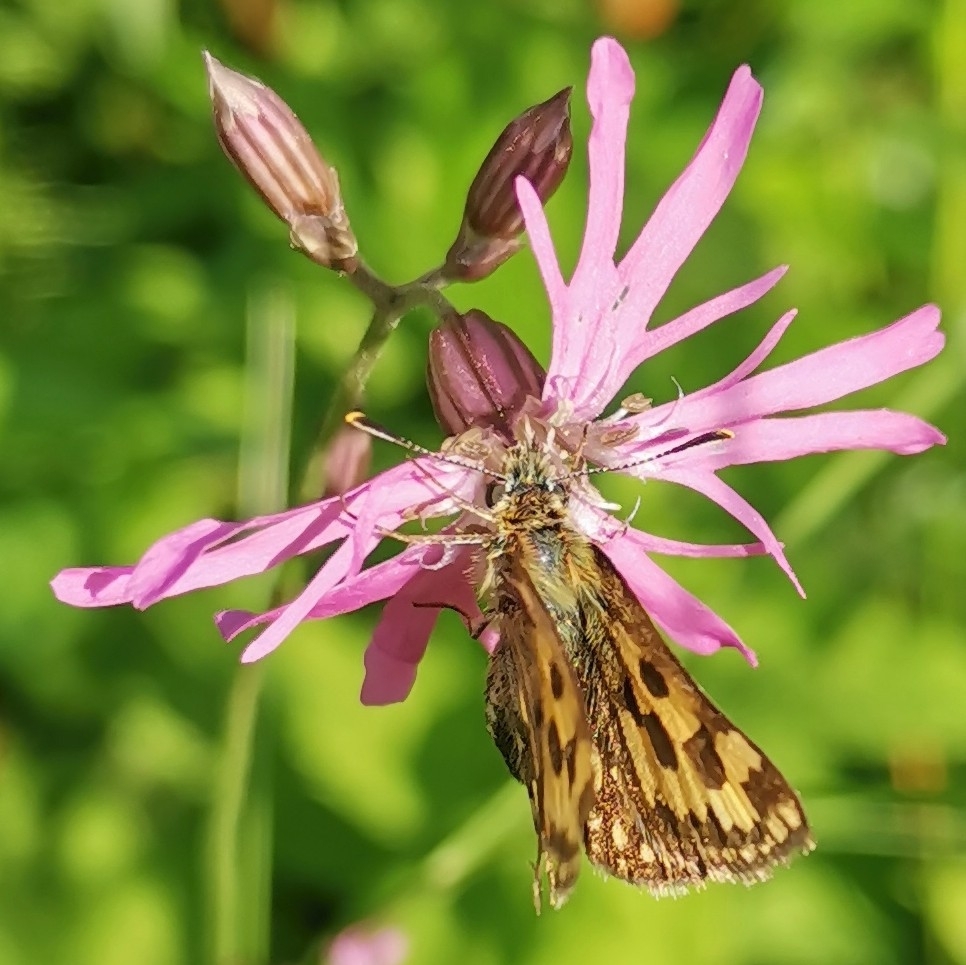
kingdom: Animalia
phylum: Arthropoda
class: Insecta
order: Lepidoptera
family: Hesperiidae
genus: Carterocephalus
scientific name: Carterocephalus silvicola
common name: Northern chequered skipper
